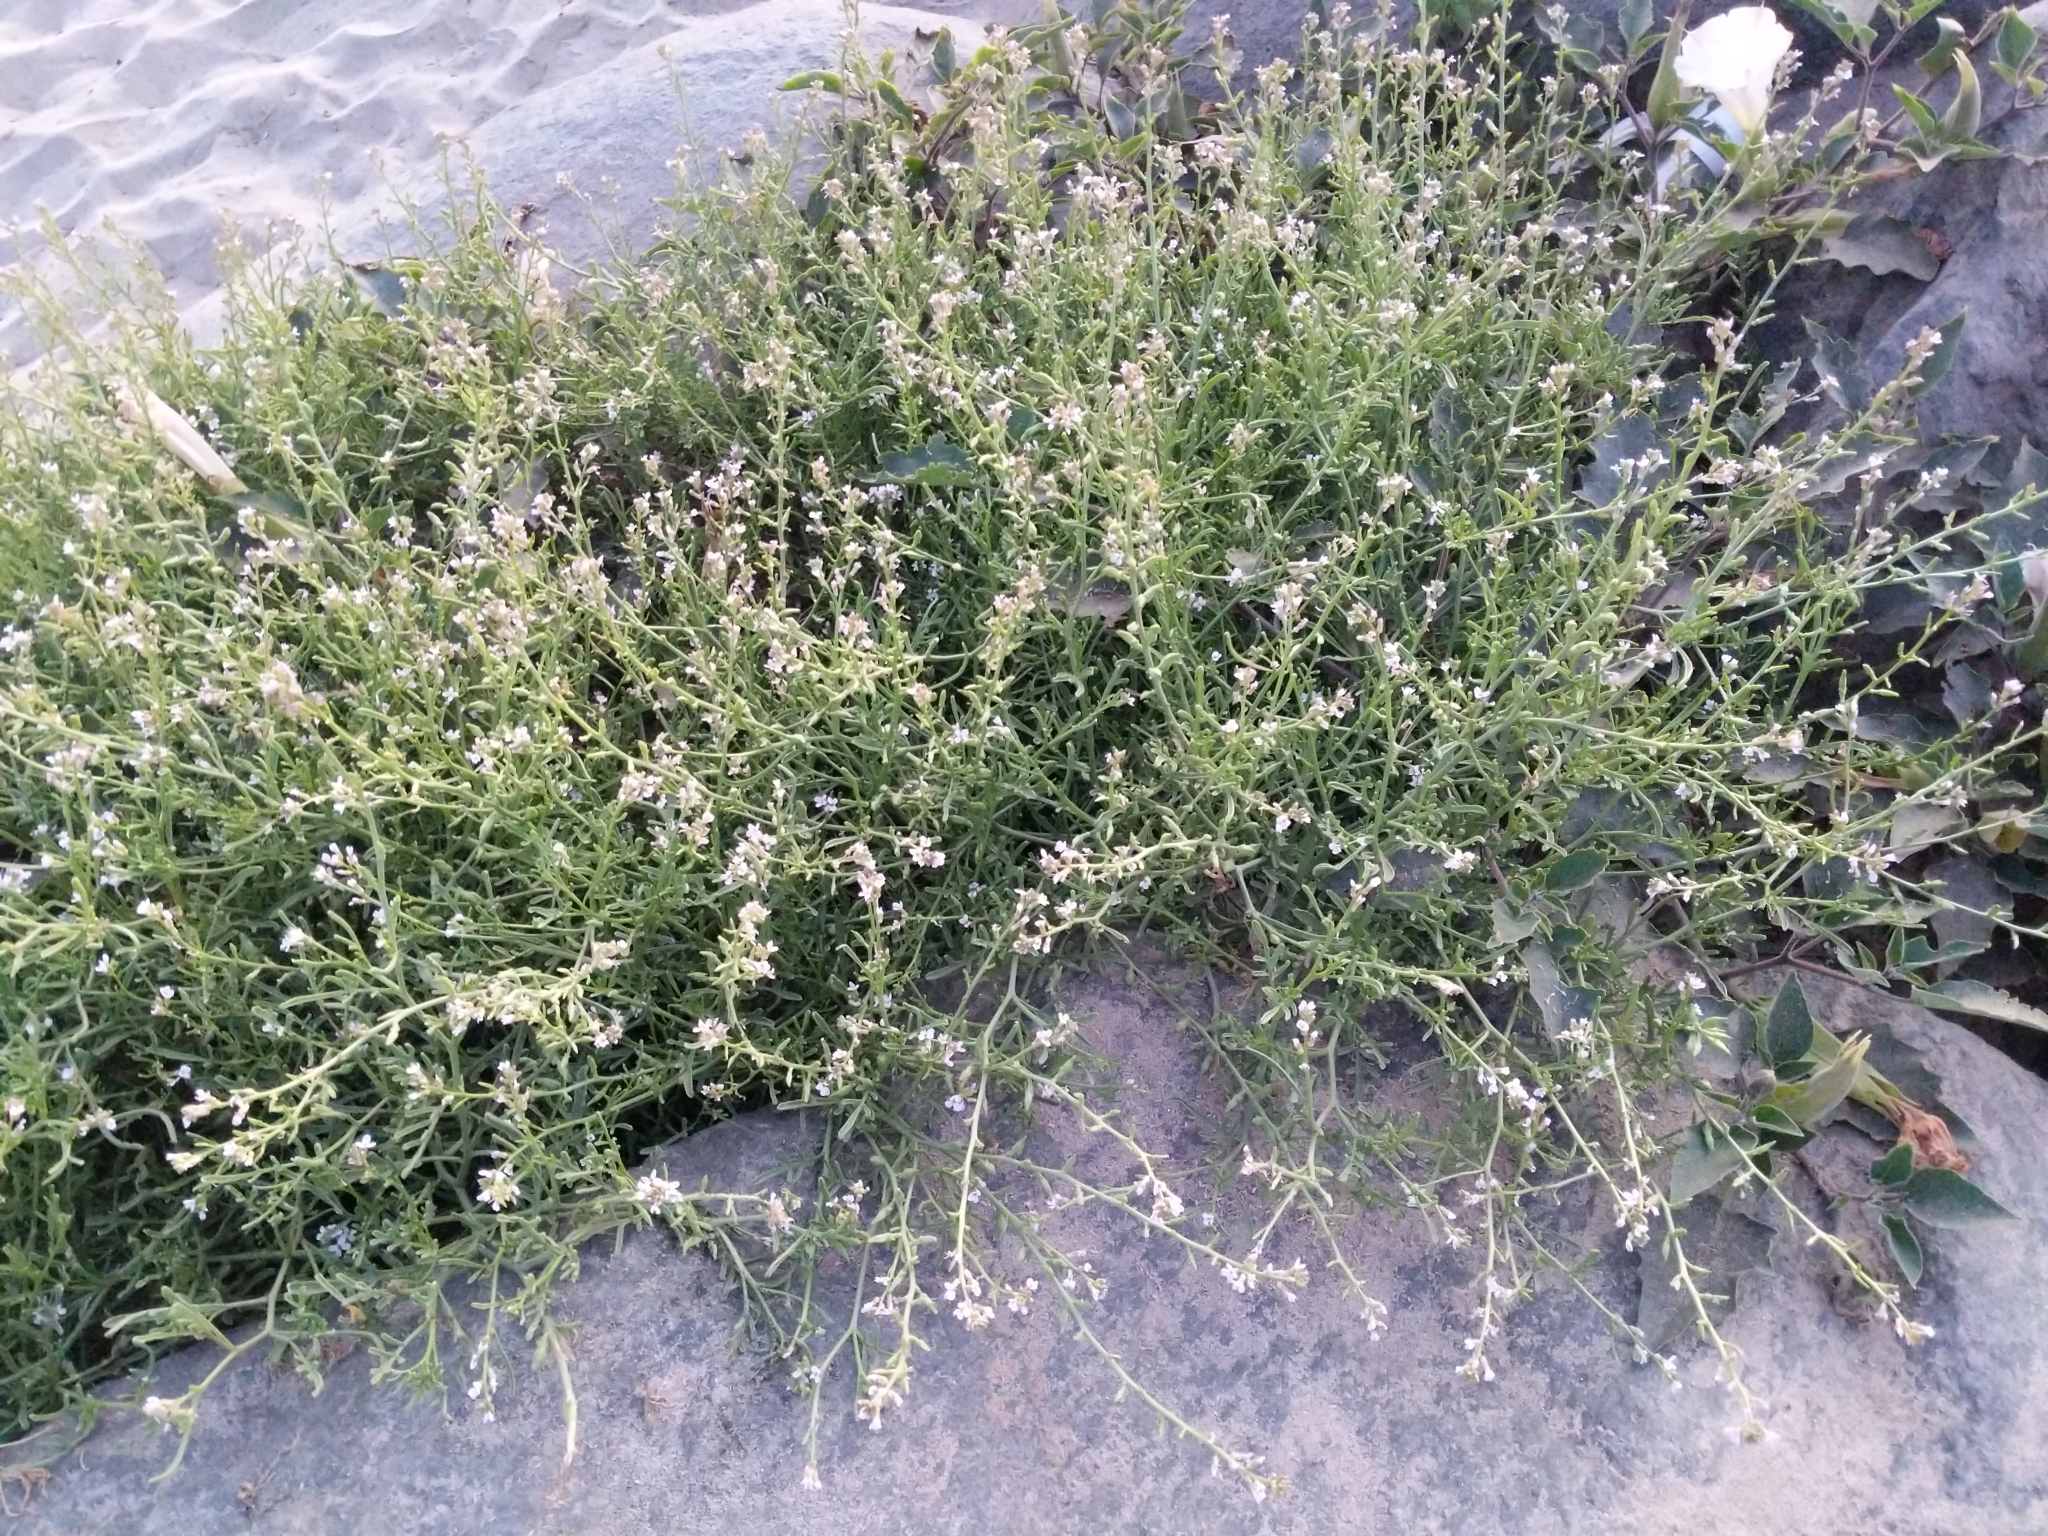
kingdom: Plantae
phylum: Tracheophyta
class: Magnoliopsida
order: Brassicales
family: Brassicaceae
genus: Cakile
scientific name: Cakile maritima
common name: Sea rocket
